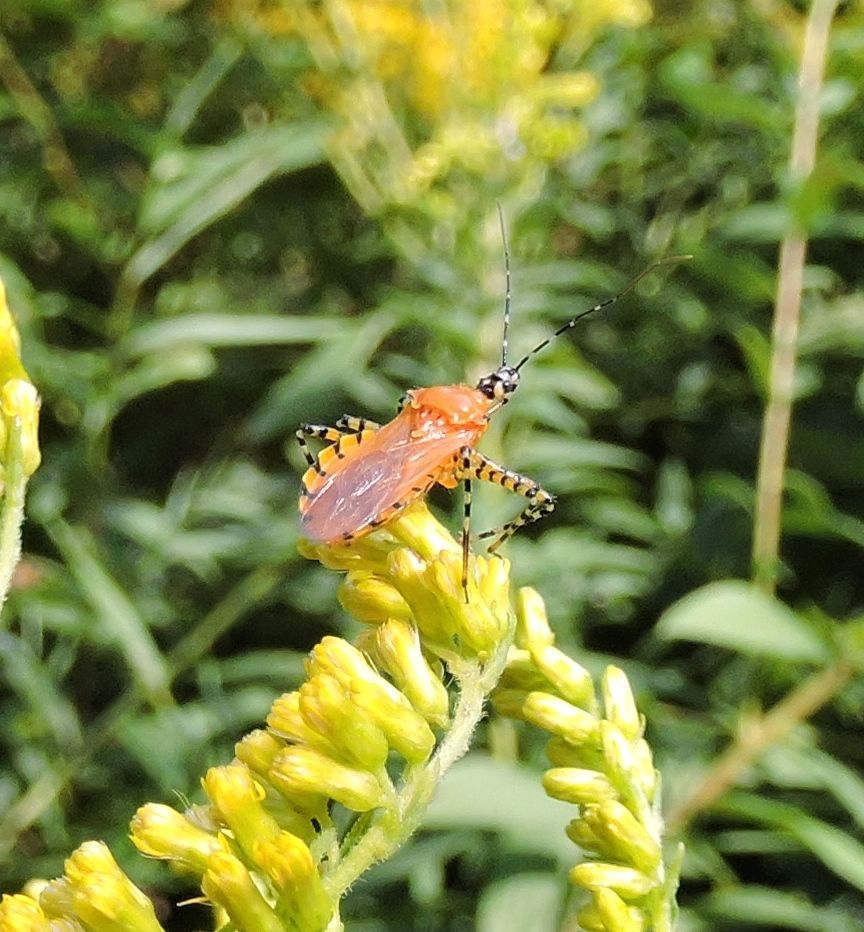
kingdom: Animalia
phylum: Arthropoda
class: Insecta
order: Hemiptera
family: Reduviidae
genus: Pselliopus
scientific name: Pselliopus barberi
